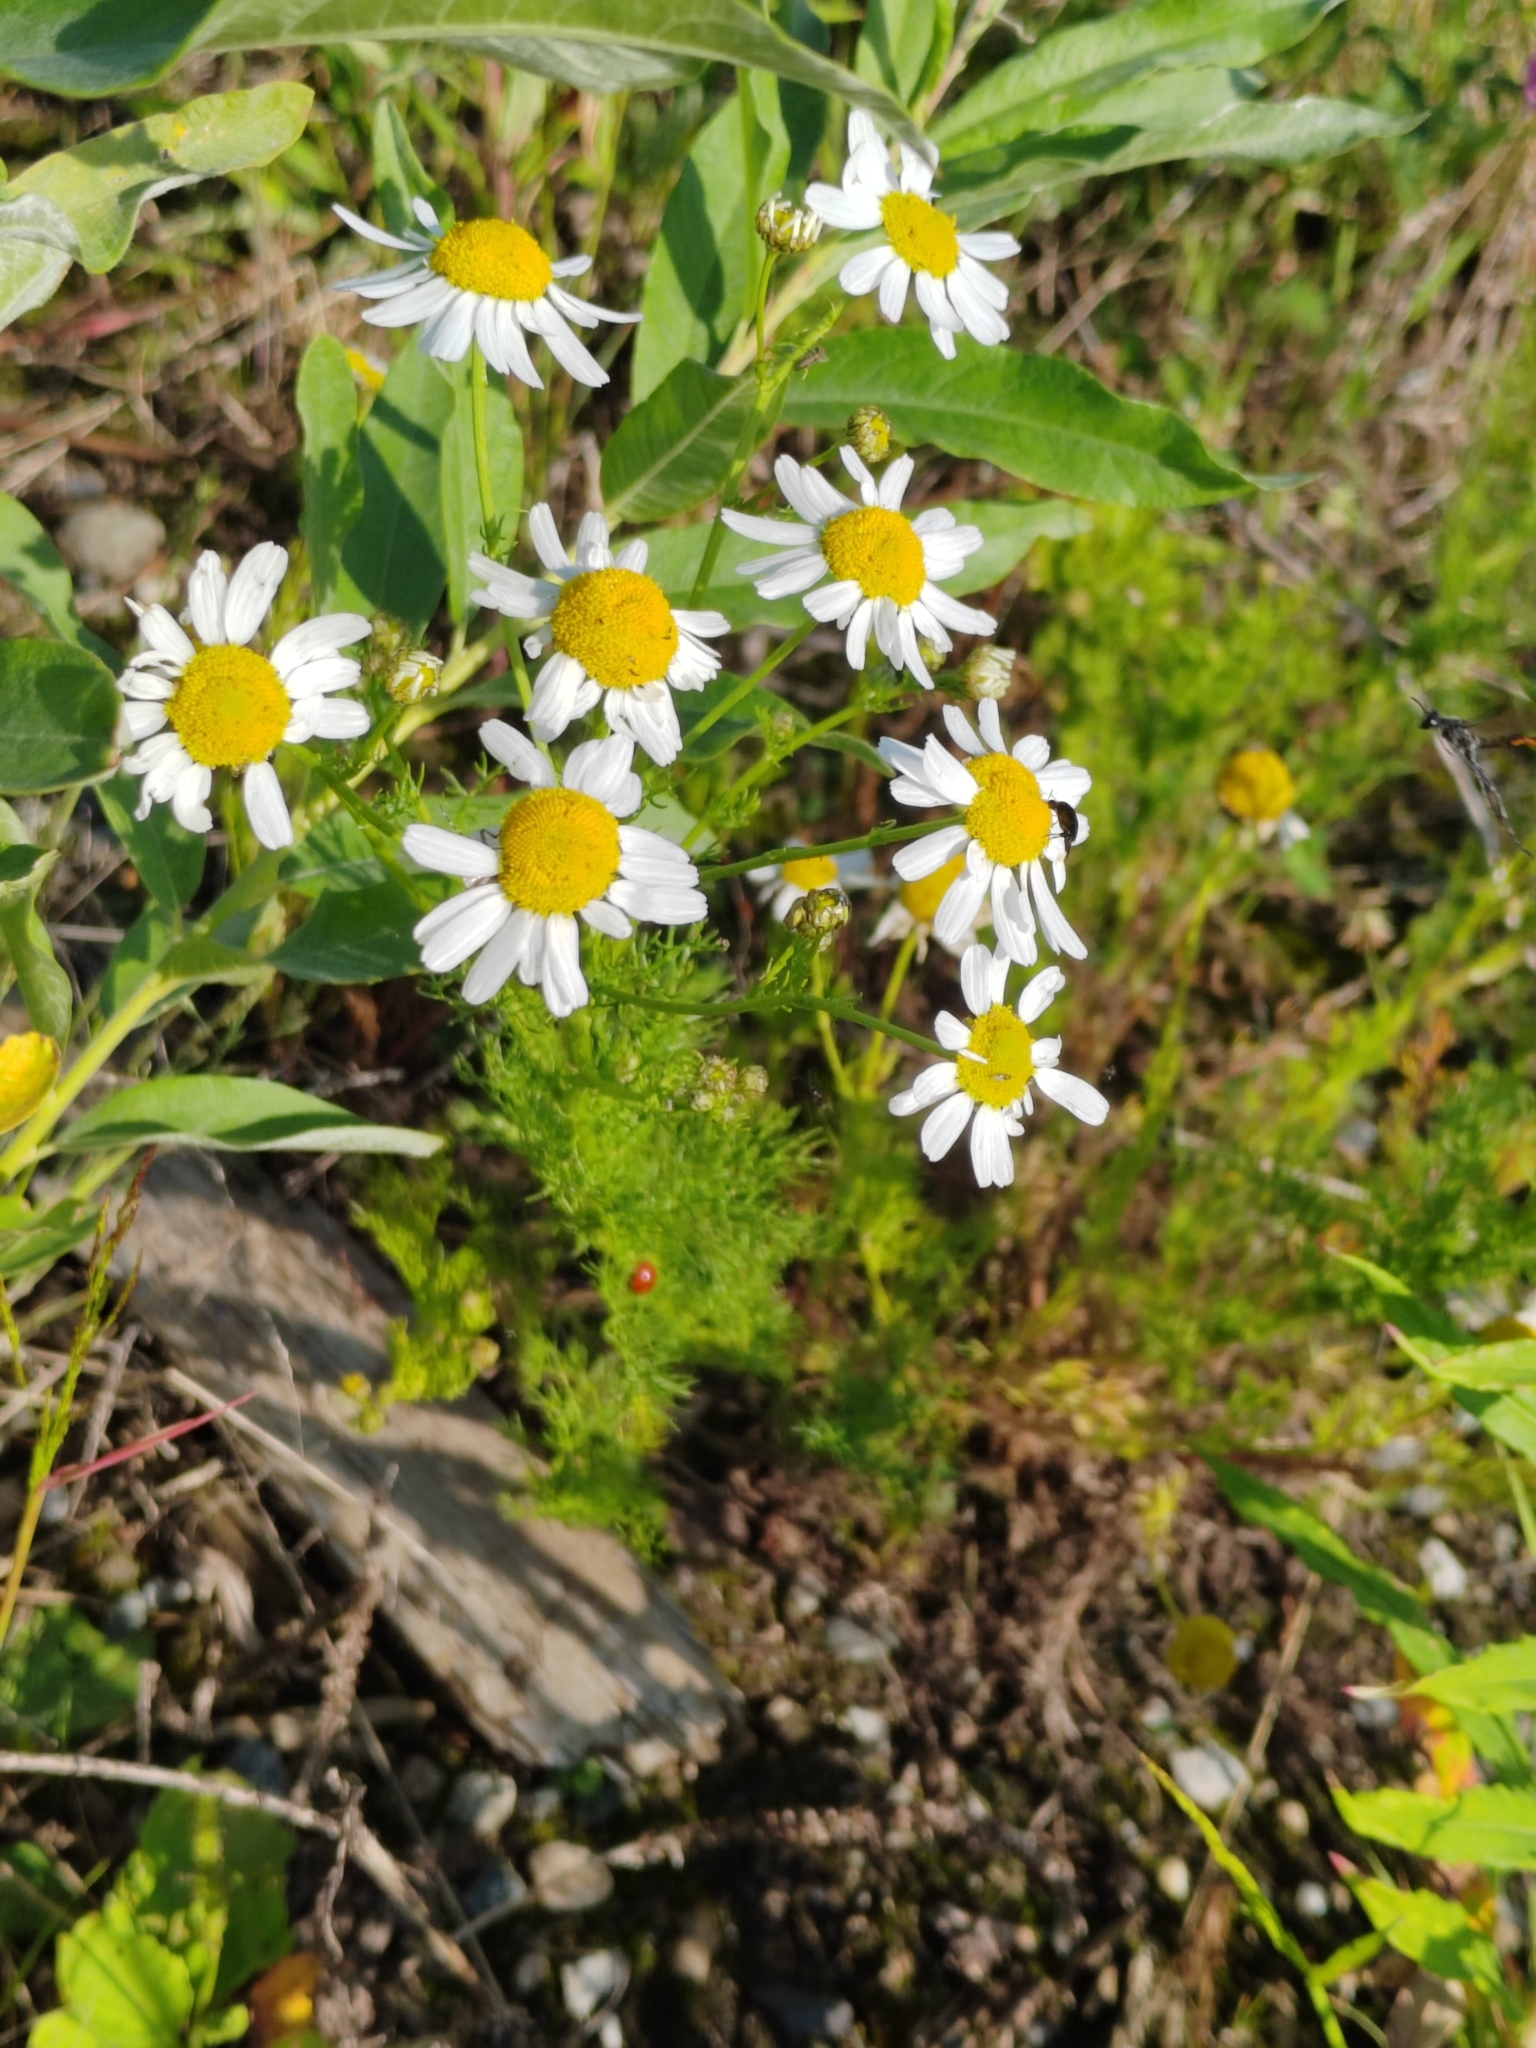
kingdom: Plantae
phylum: Tracheophyta
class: Magnoliopsida
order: Asterales
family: Asteraceae
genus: Tripleurospermum
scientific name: Tripleurospermum inodorum
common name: Scentless mayweed
